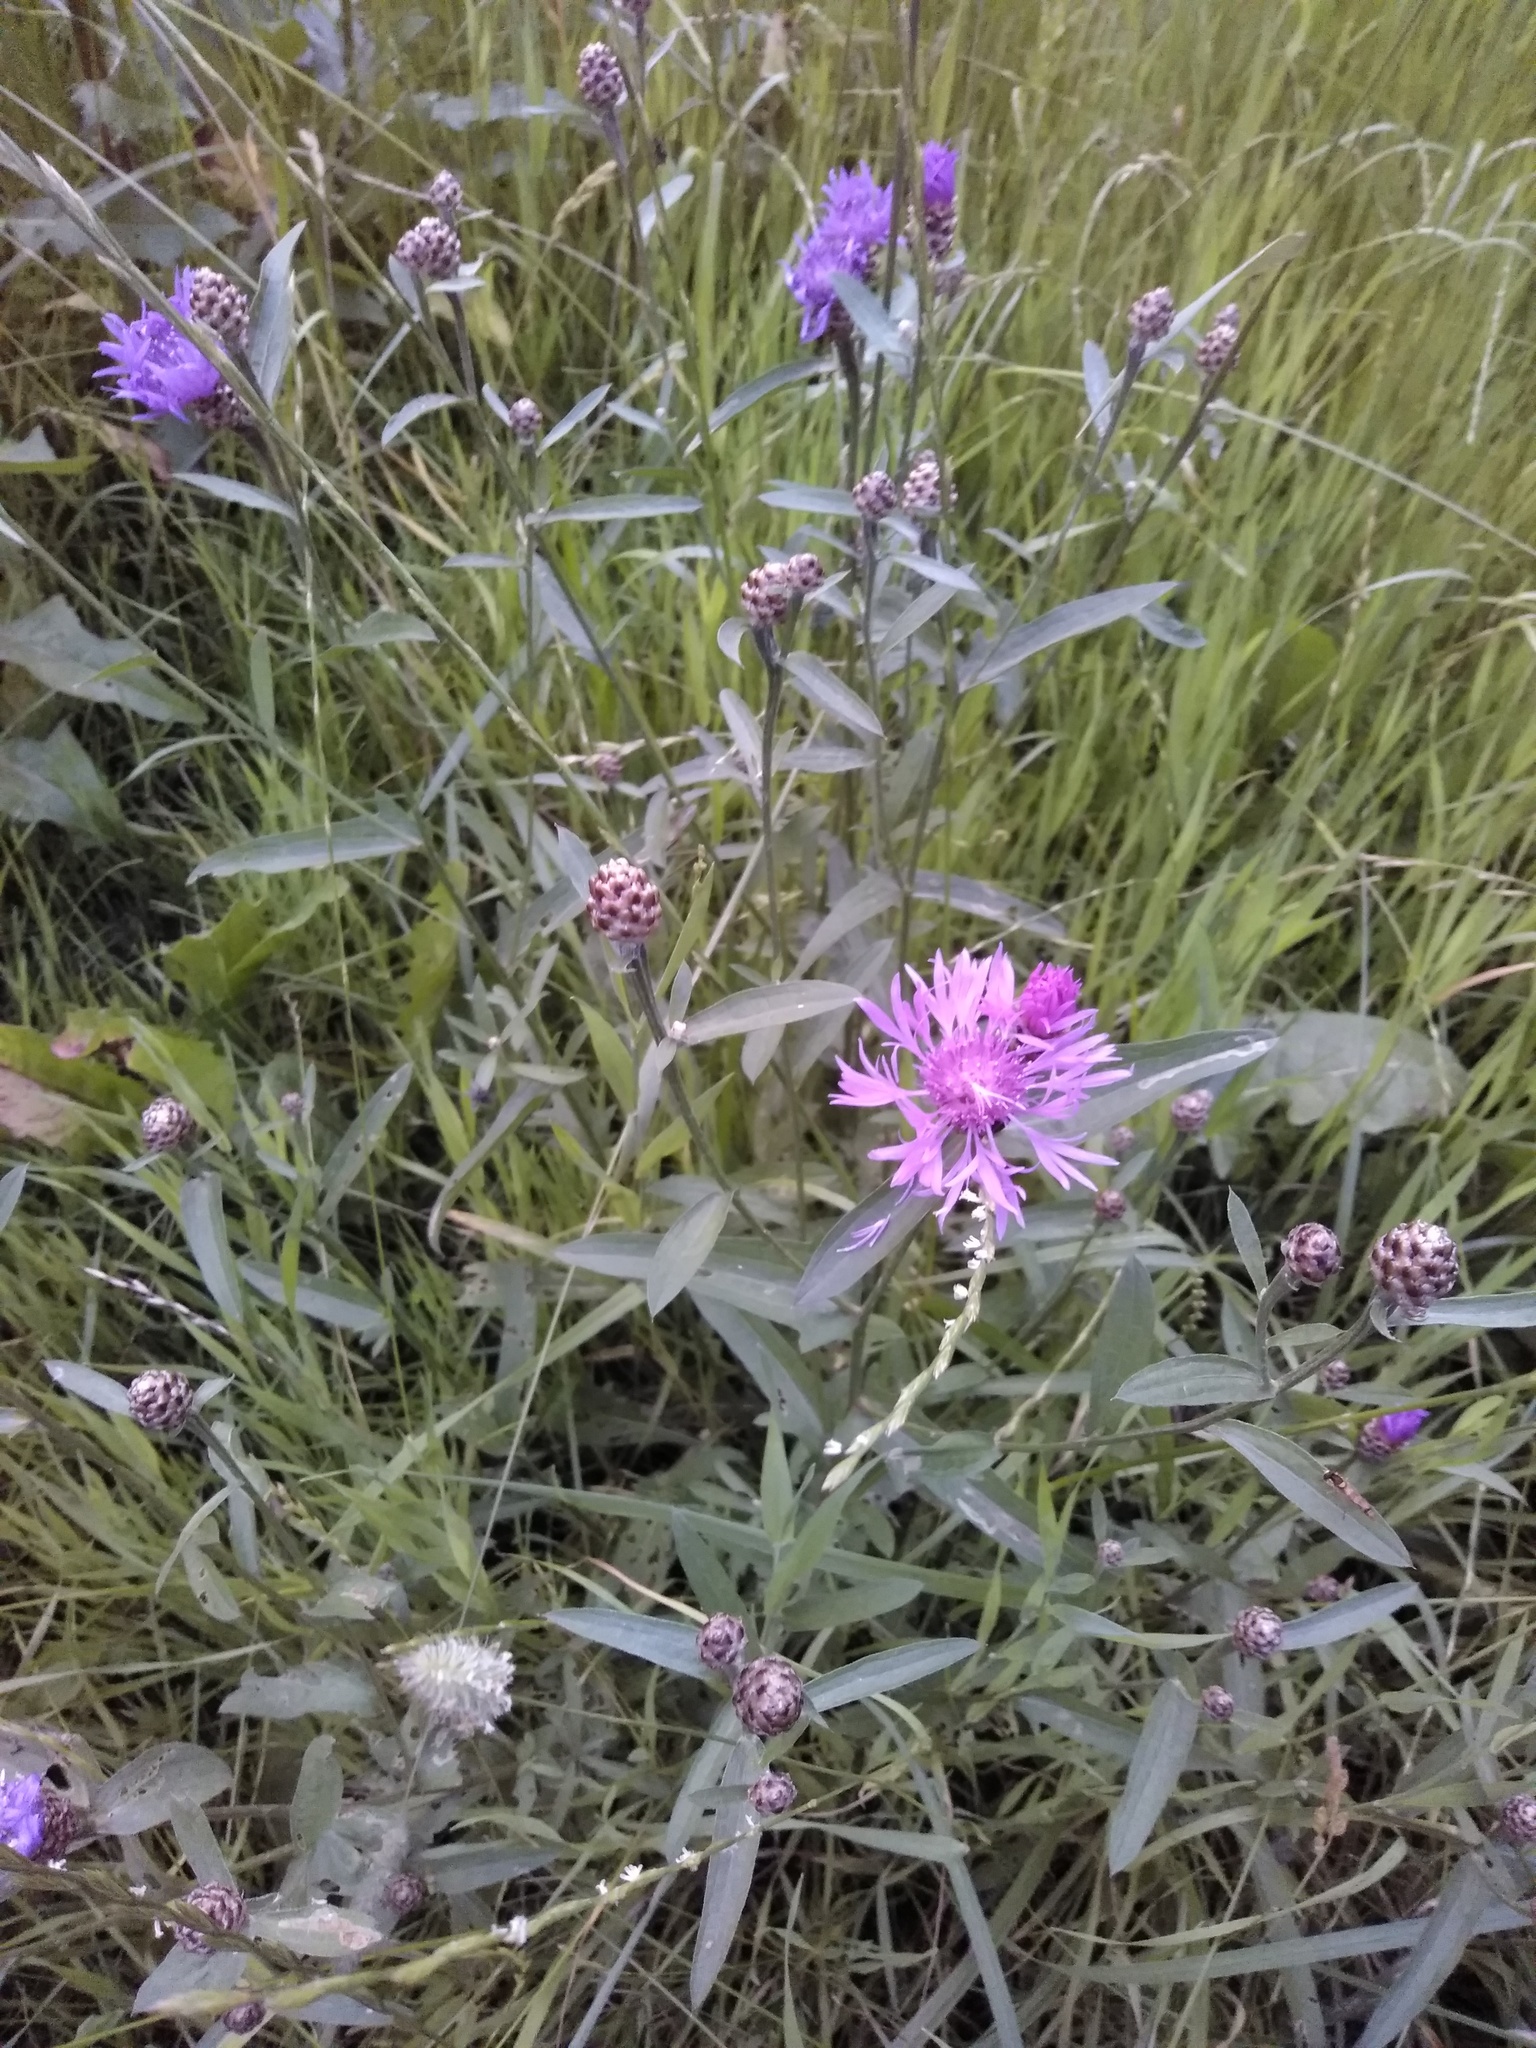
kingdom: Plantae
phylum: Tracheophyta
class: Magnoliopsida
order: Asterales
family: Asteraceae
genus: Centaurea
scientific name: Centaurea jacea
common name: Brown knapweed
